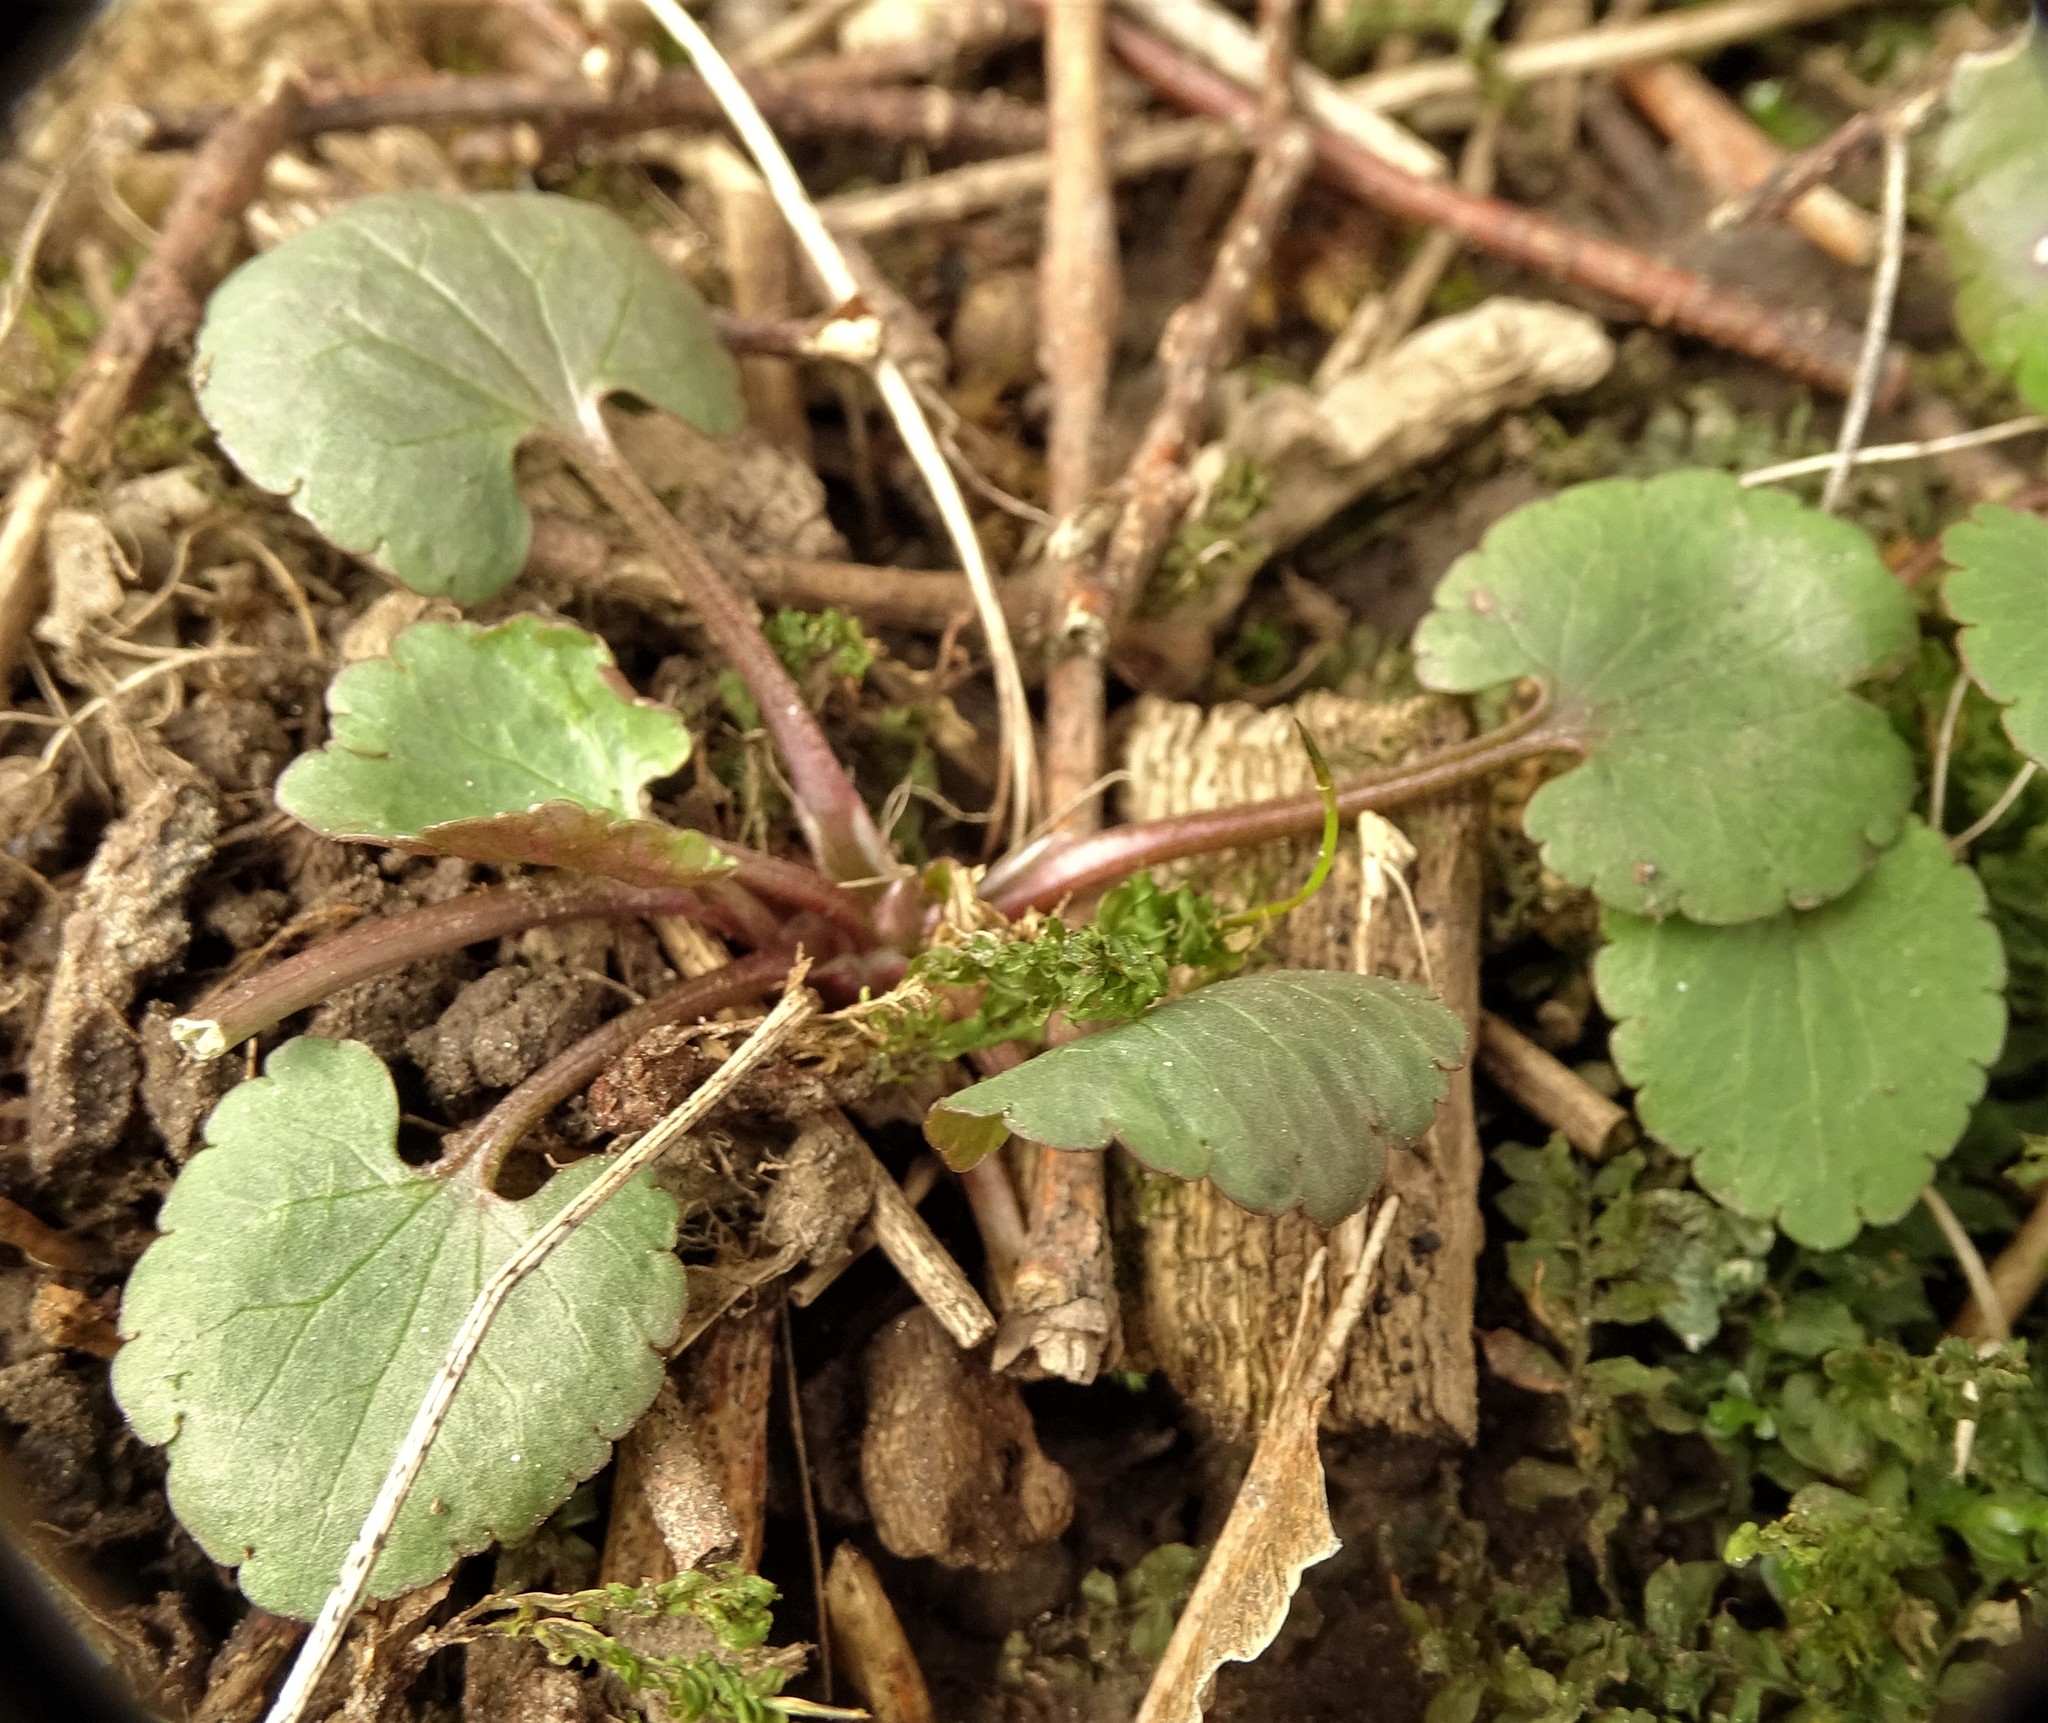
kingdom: Plantae
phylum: Tracheophyta
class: Magnoliopsida
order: Ranunculales
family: Ranunculaceae
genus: Ranunculus
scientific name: Ranunculus abortivus
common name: Early wood buttercup
